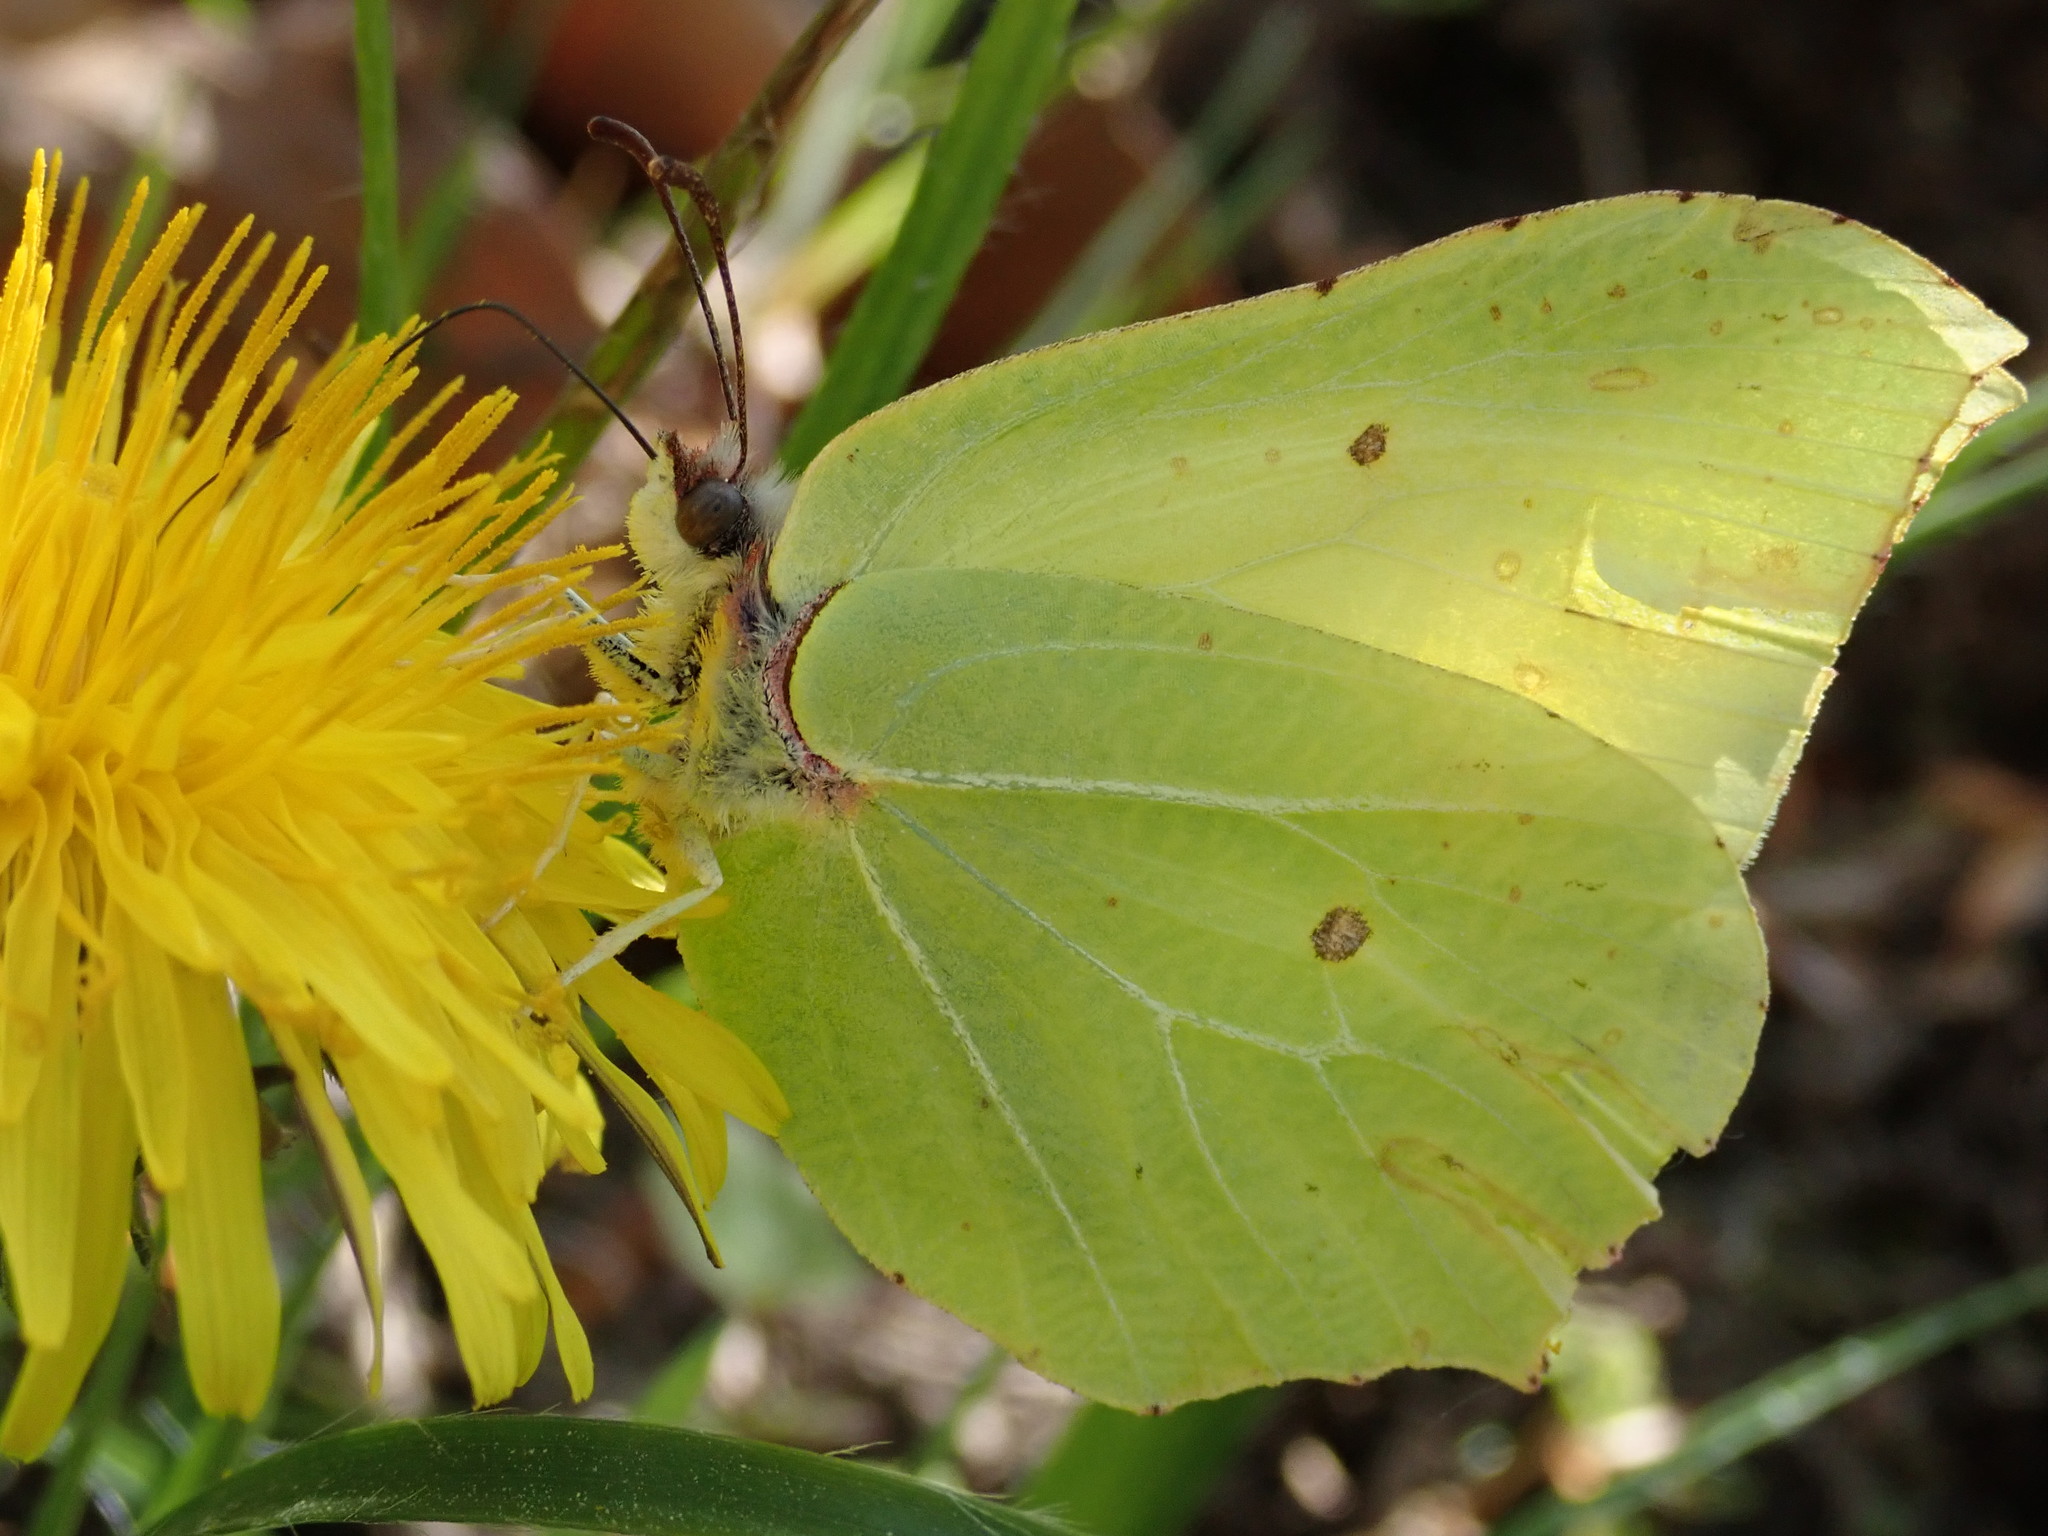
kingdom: Animalia
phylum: Arthropoda
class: Insecta
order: Lepidoptera
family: Pieridae
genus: Gonepteryx
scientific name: Gonepteryx rhamni
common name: Brimstone
